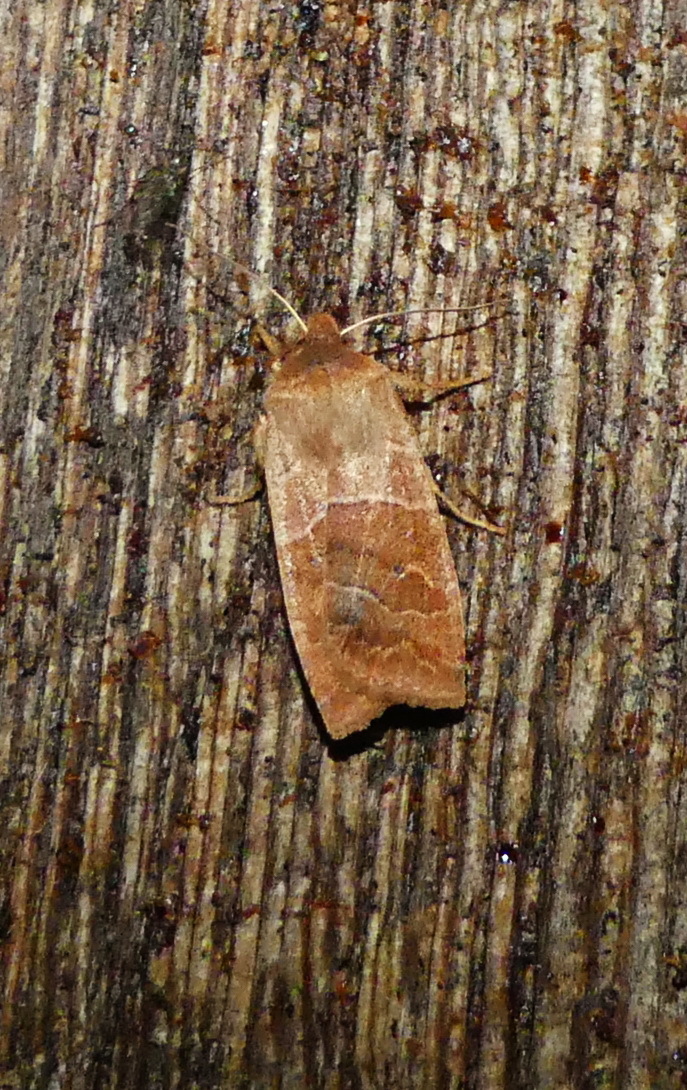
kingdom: Animalia
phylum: Arthropoda
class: Insecta
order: Lepidoptera
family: Noctuidae
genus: Eupsilia
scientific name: Eupsilia morrisoni
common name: Morrison's sallow
